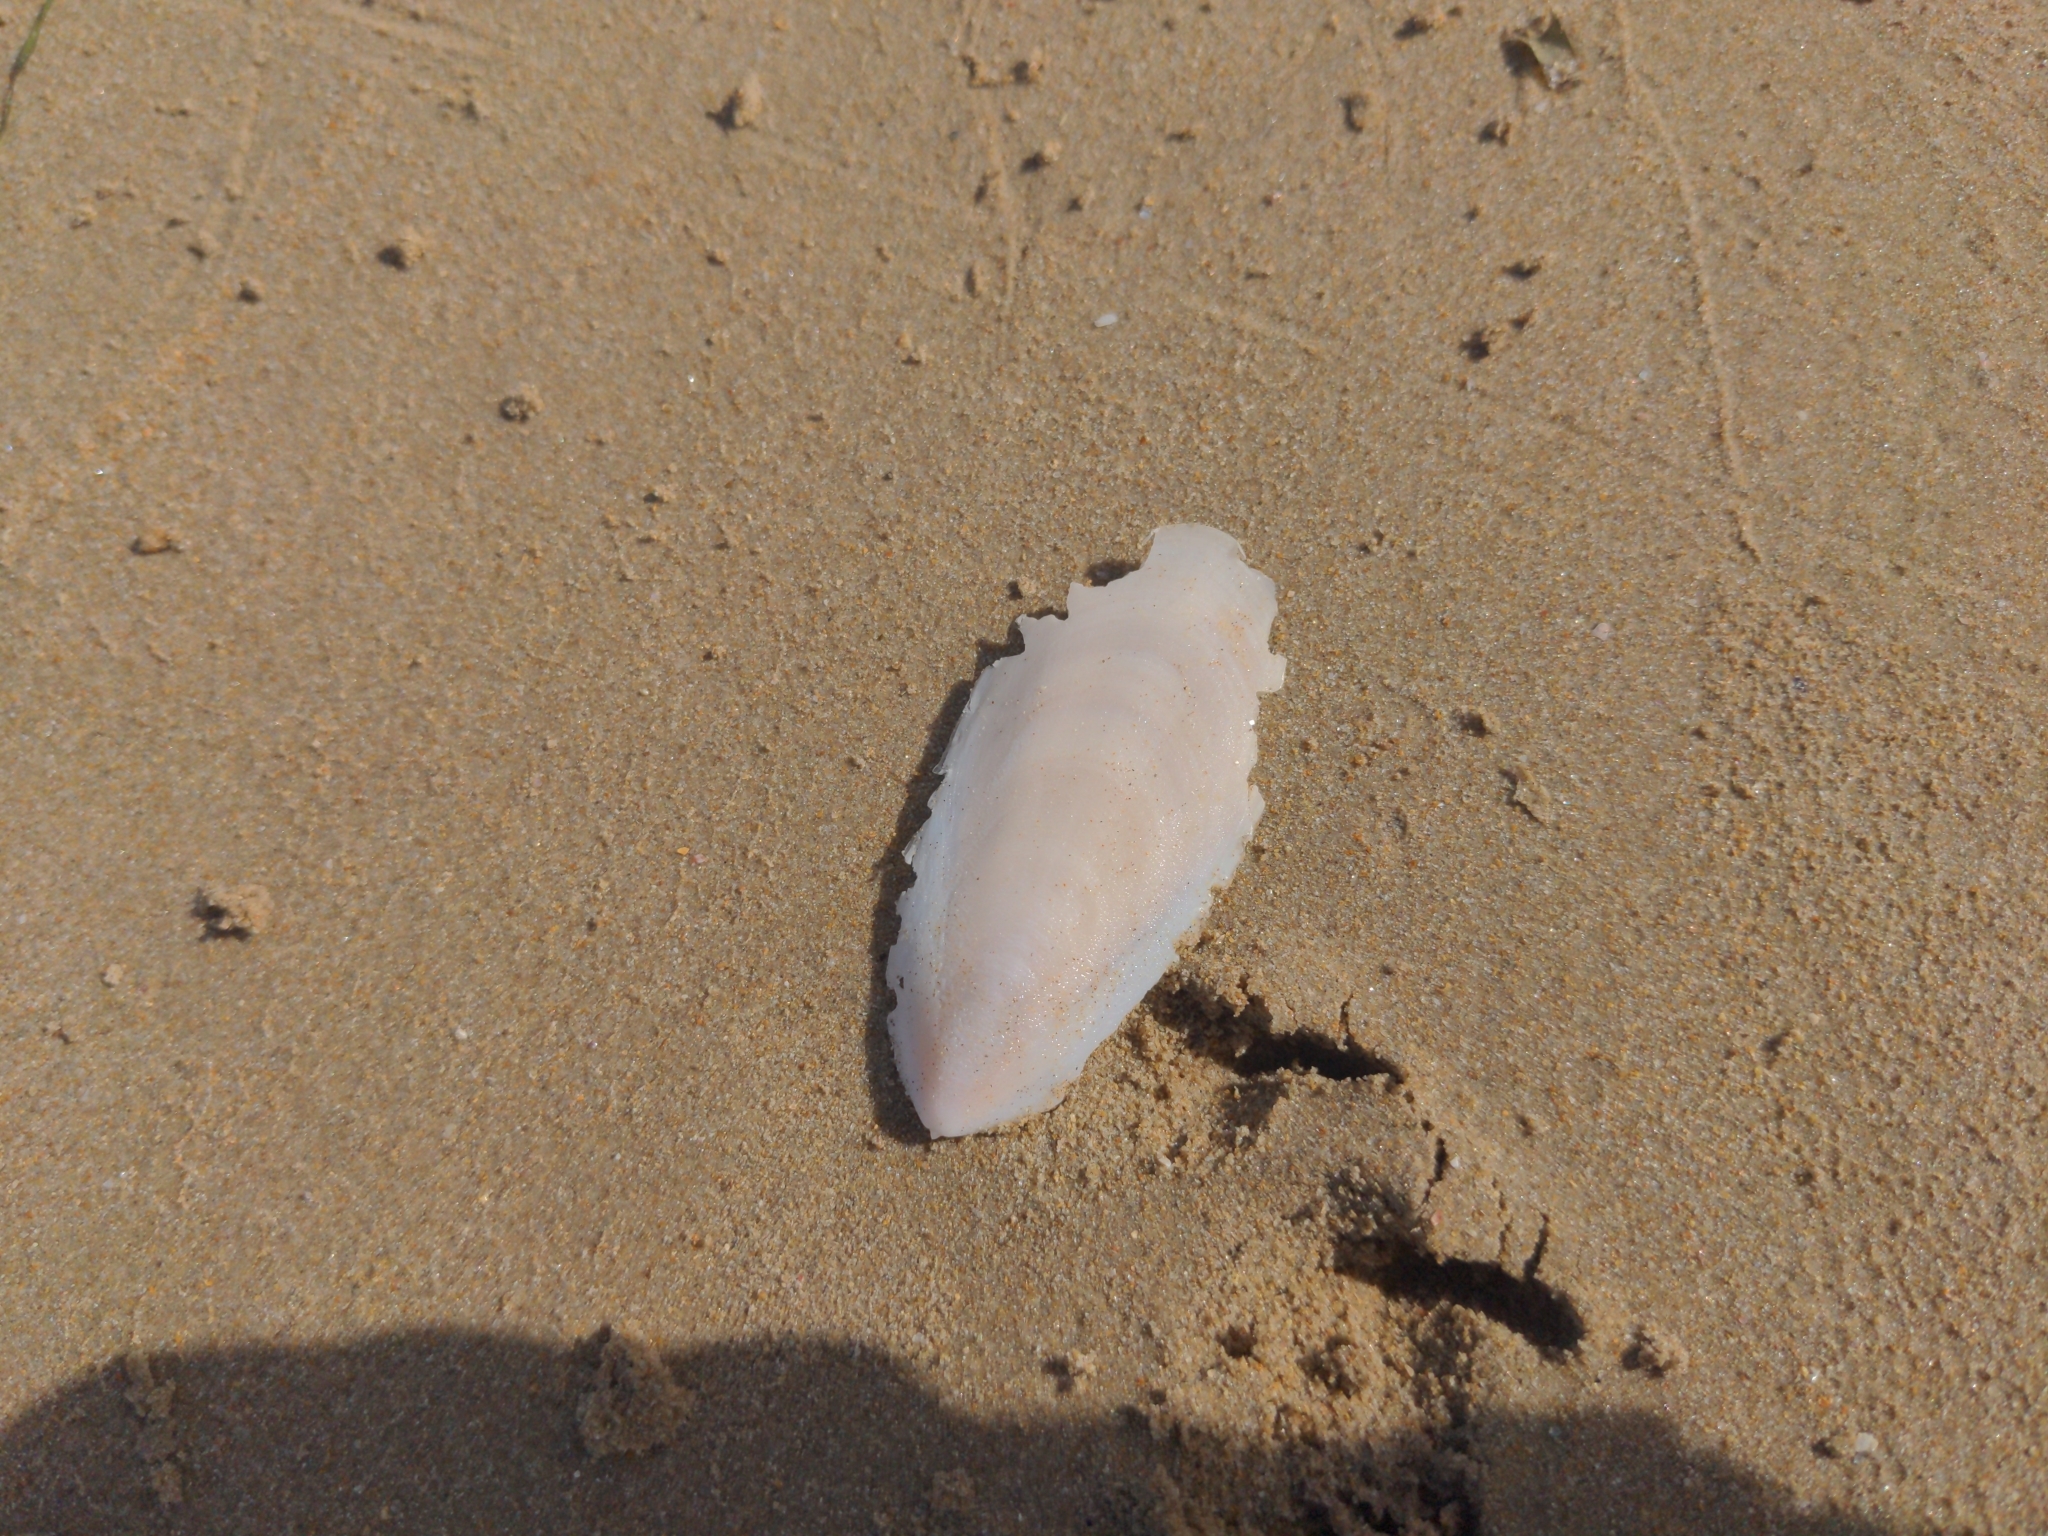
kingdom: Animalia
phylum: Mollusca
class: Cephalopoda
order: Sepiida
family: Sepiidae
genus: Ascarosepion
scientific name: Ascarosepion apama
